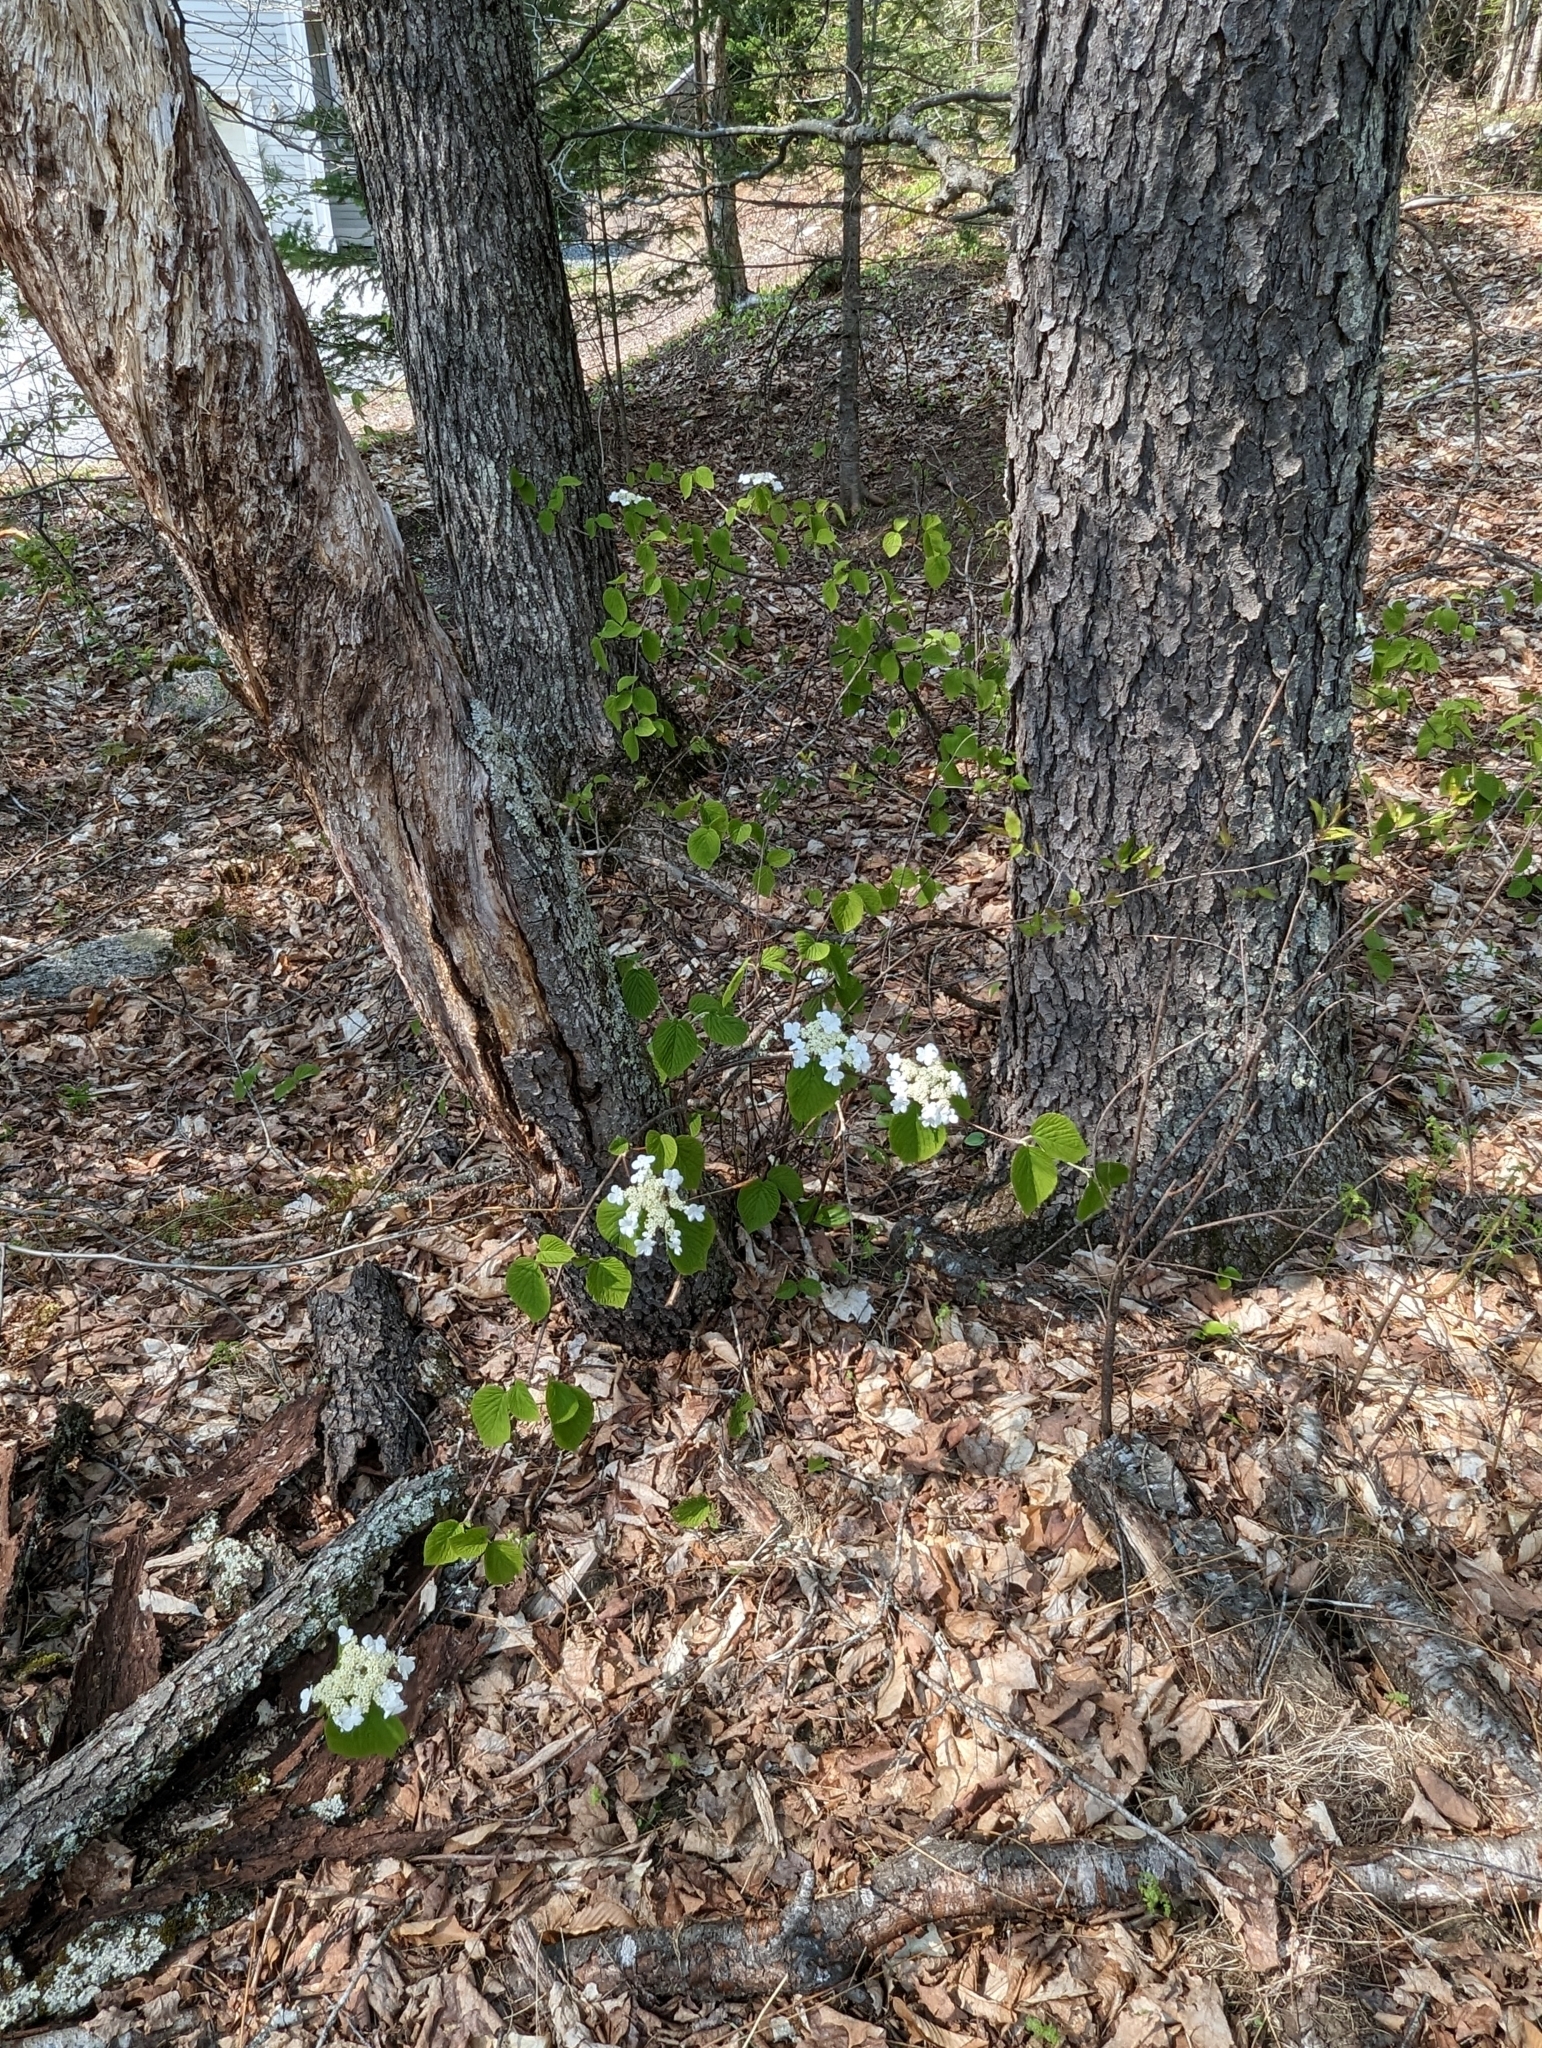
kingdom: Plantae
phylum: Tracheophyta
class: Magnoliopsida
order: Dipsacales
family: Viburnaceae
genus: Viburnum
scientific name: Viburnum lantanoides
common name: Hobblebush
